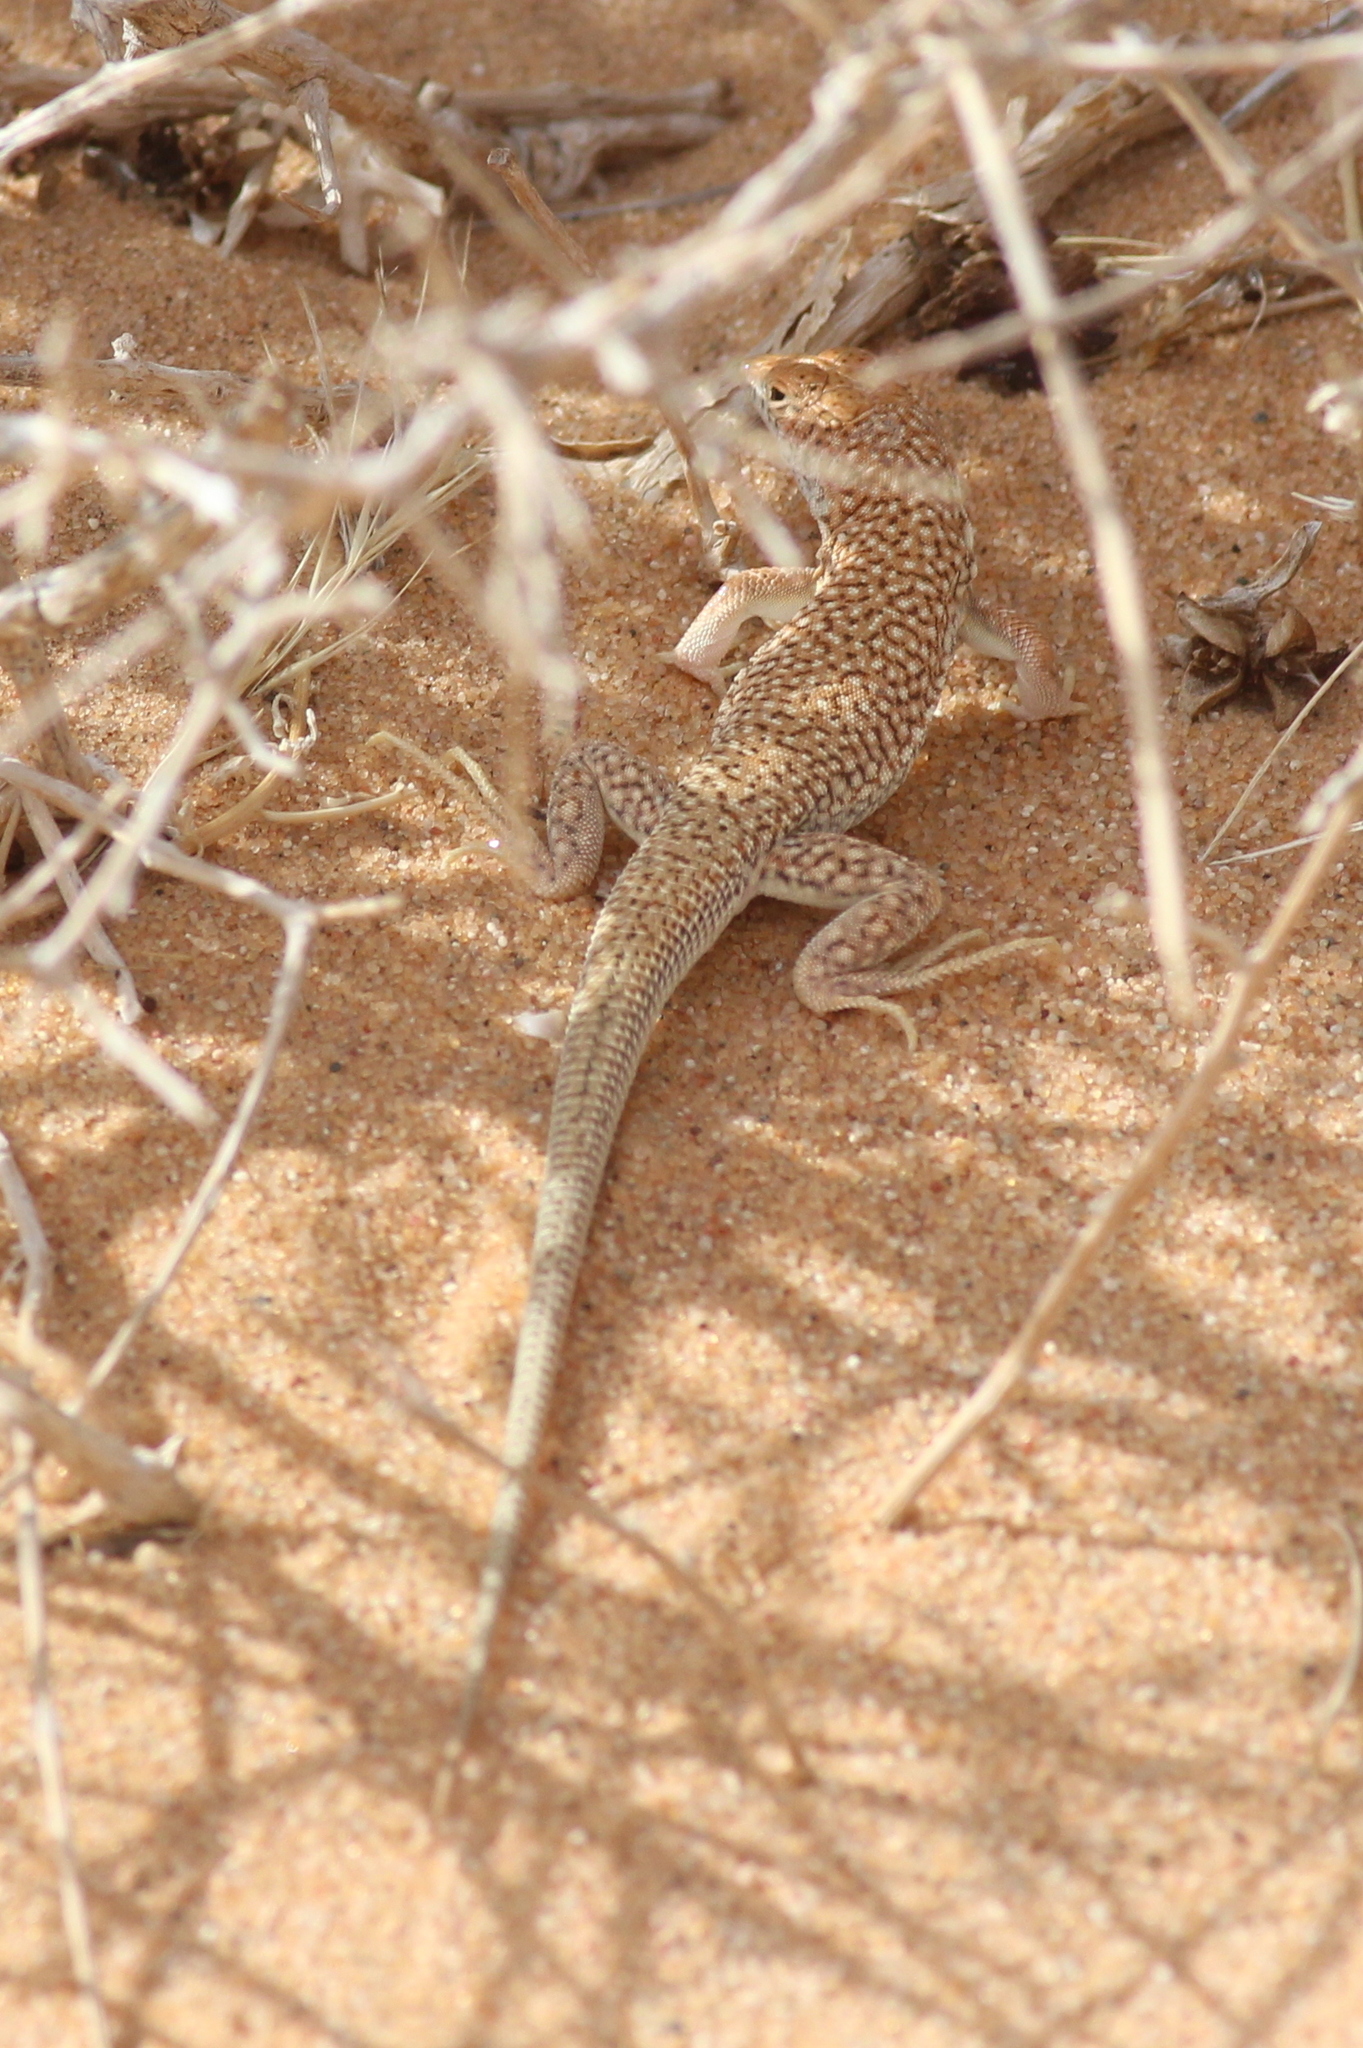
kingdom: Animalia
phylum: Chordata
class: Squamata
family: Lacertidae
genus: Acanthodactylus
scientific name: Acanthodactylus dumerilii
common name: Duméril's fringe-fingered lizard
